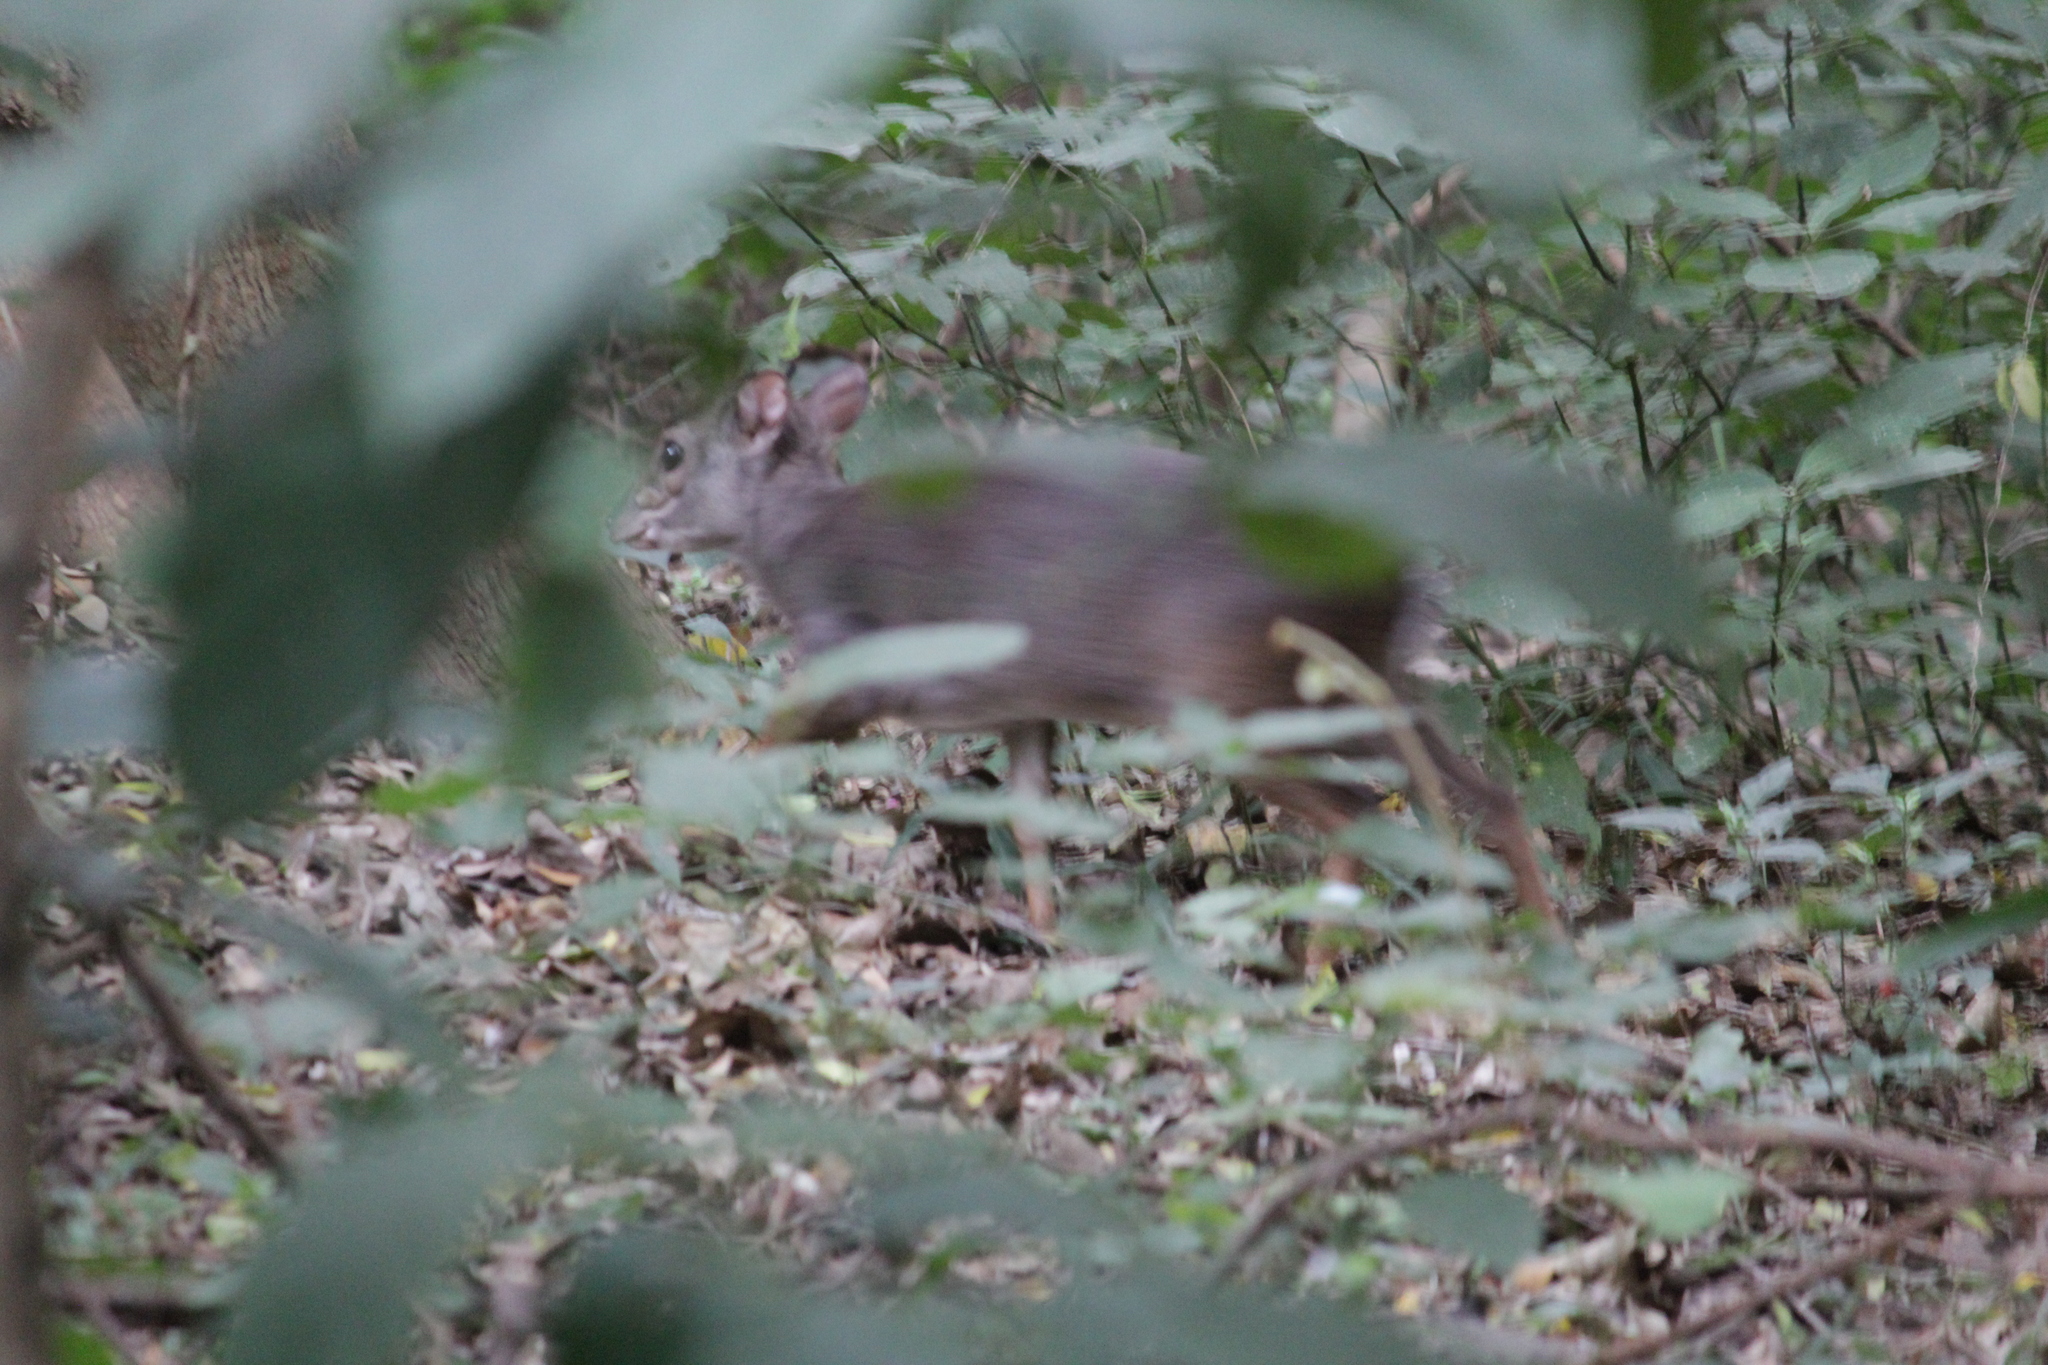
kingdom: Animalia
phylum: Chordata
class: Mammalia
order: Artiodactyla
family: Bovidae
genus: Philantomba
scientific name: Philantomba monticola
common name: Blue duiker
